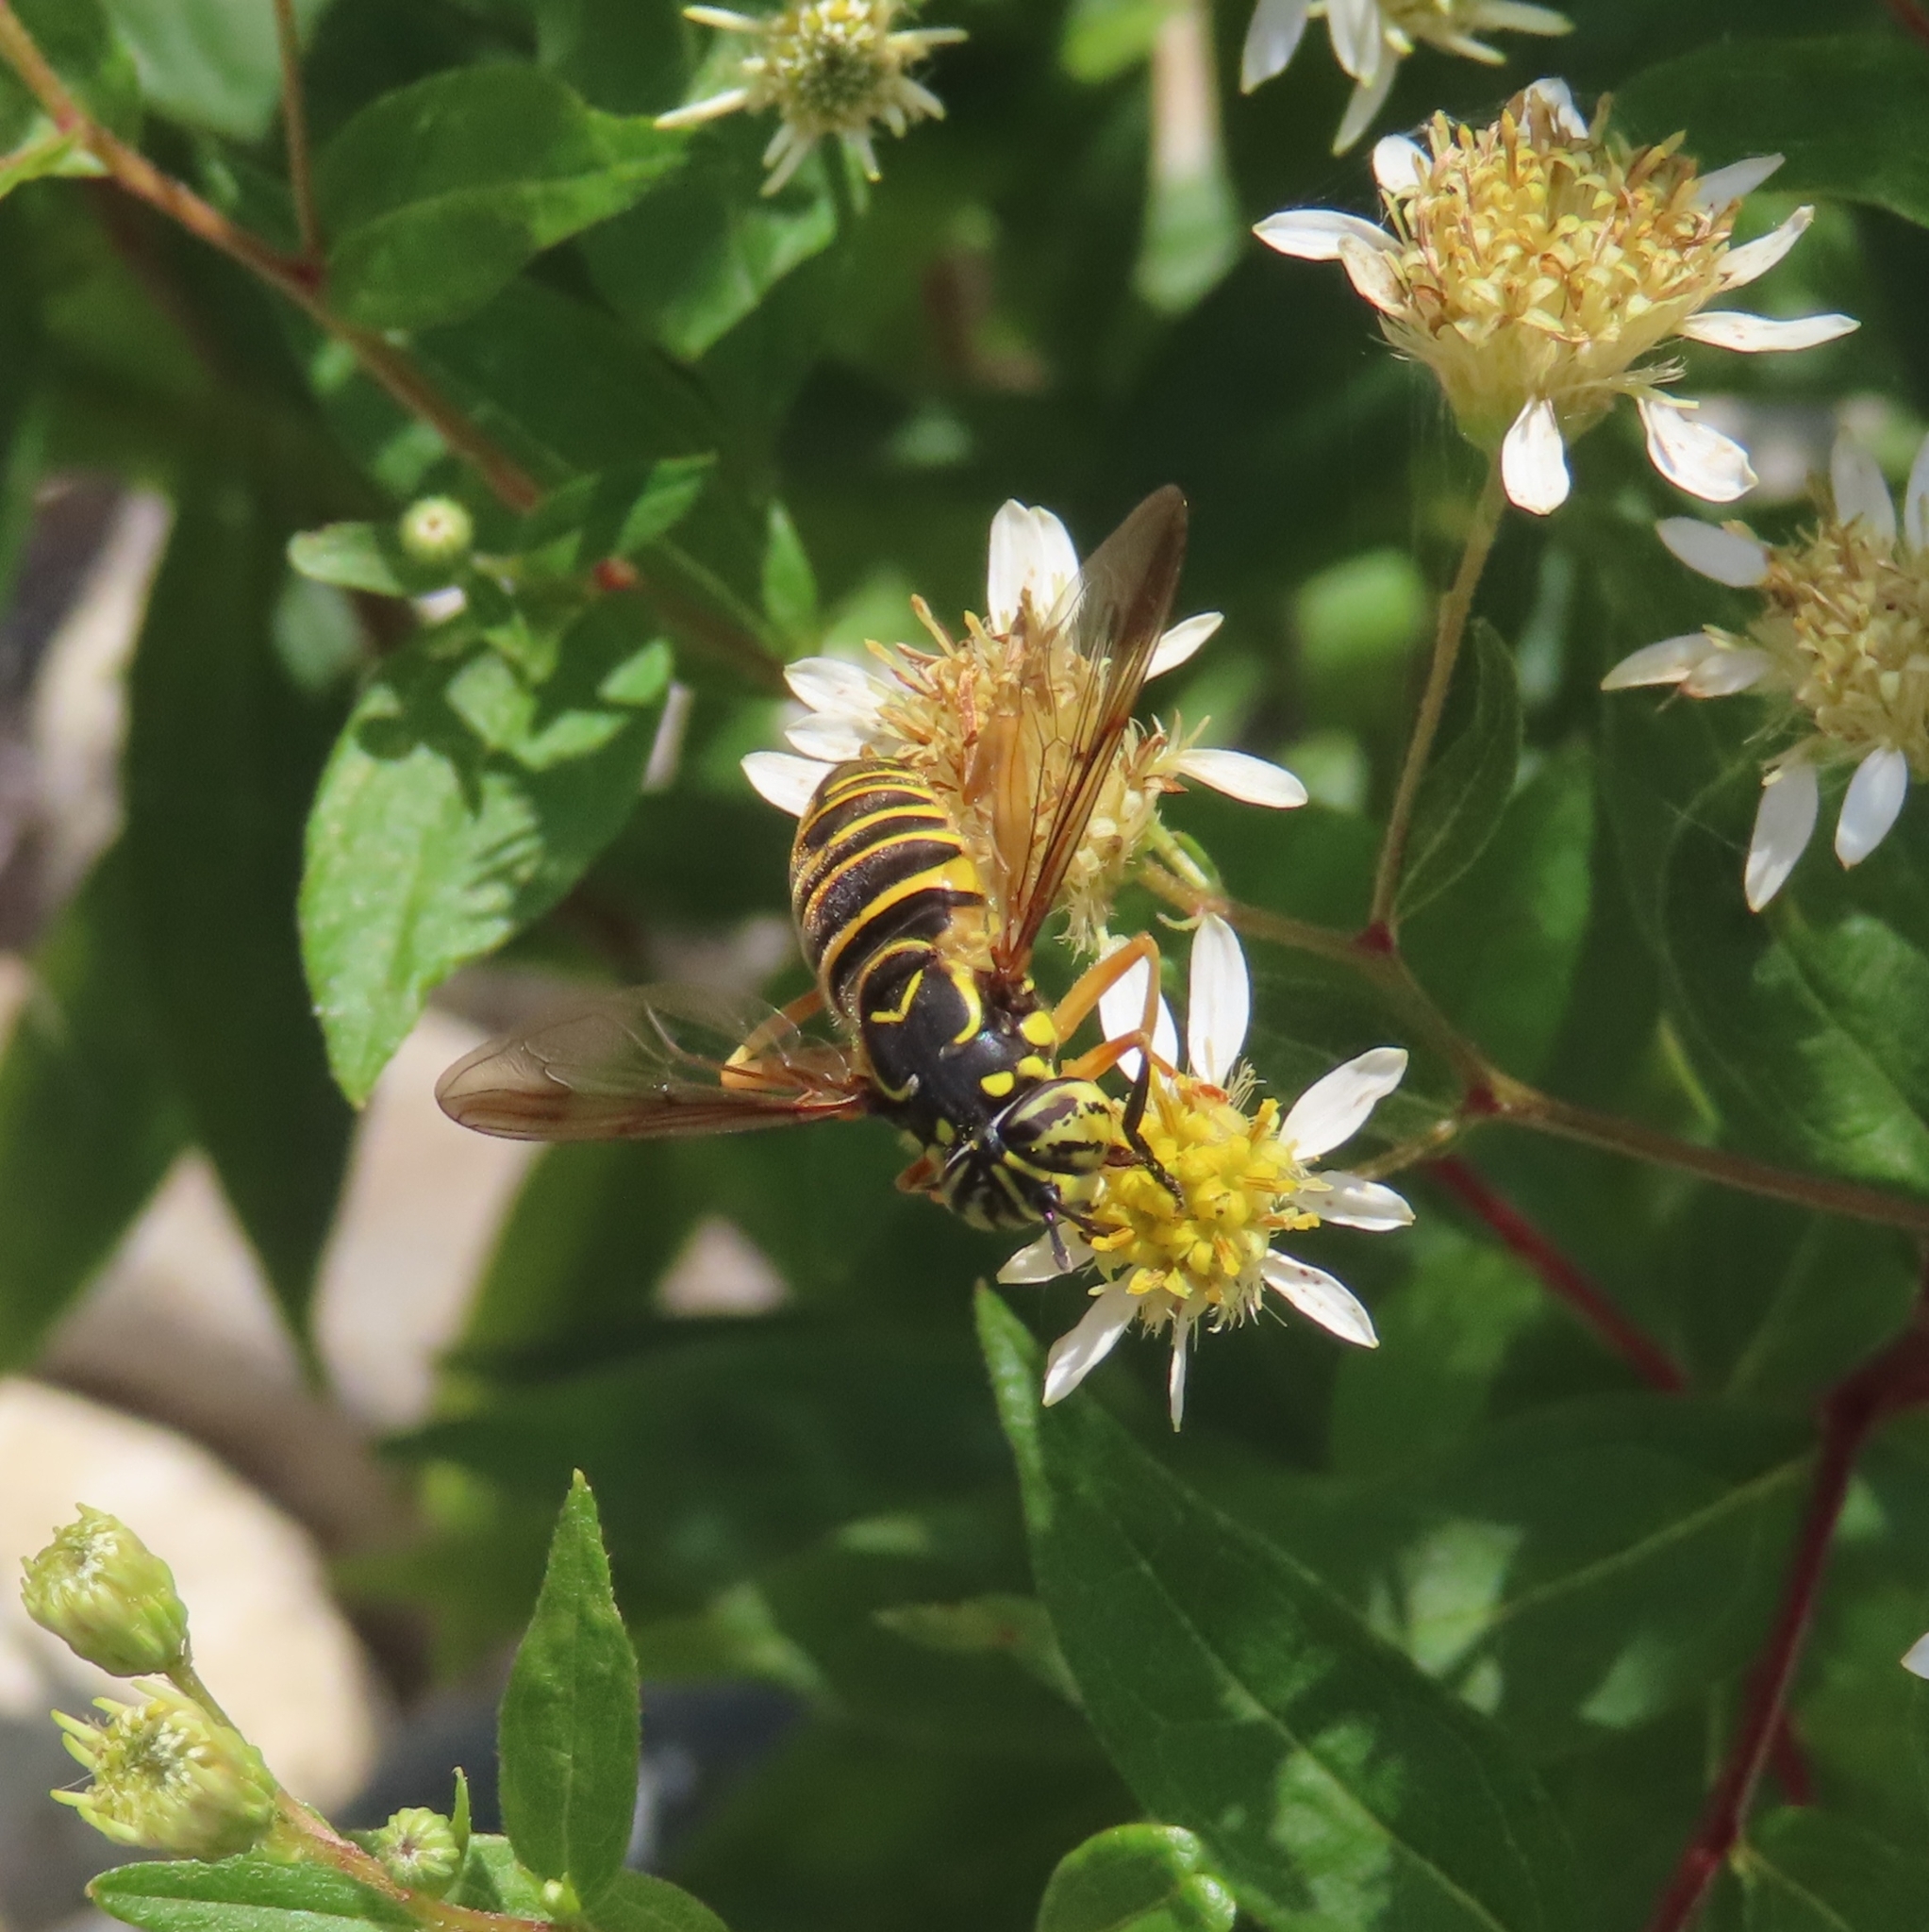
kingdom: Animalia
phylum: Arthropoda
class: Insecta
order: Diptera
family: Syrphidae
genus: Spilomyia
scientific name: Spilomyia longicornis
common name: Eastern hornet fly
